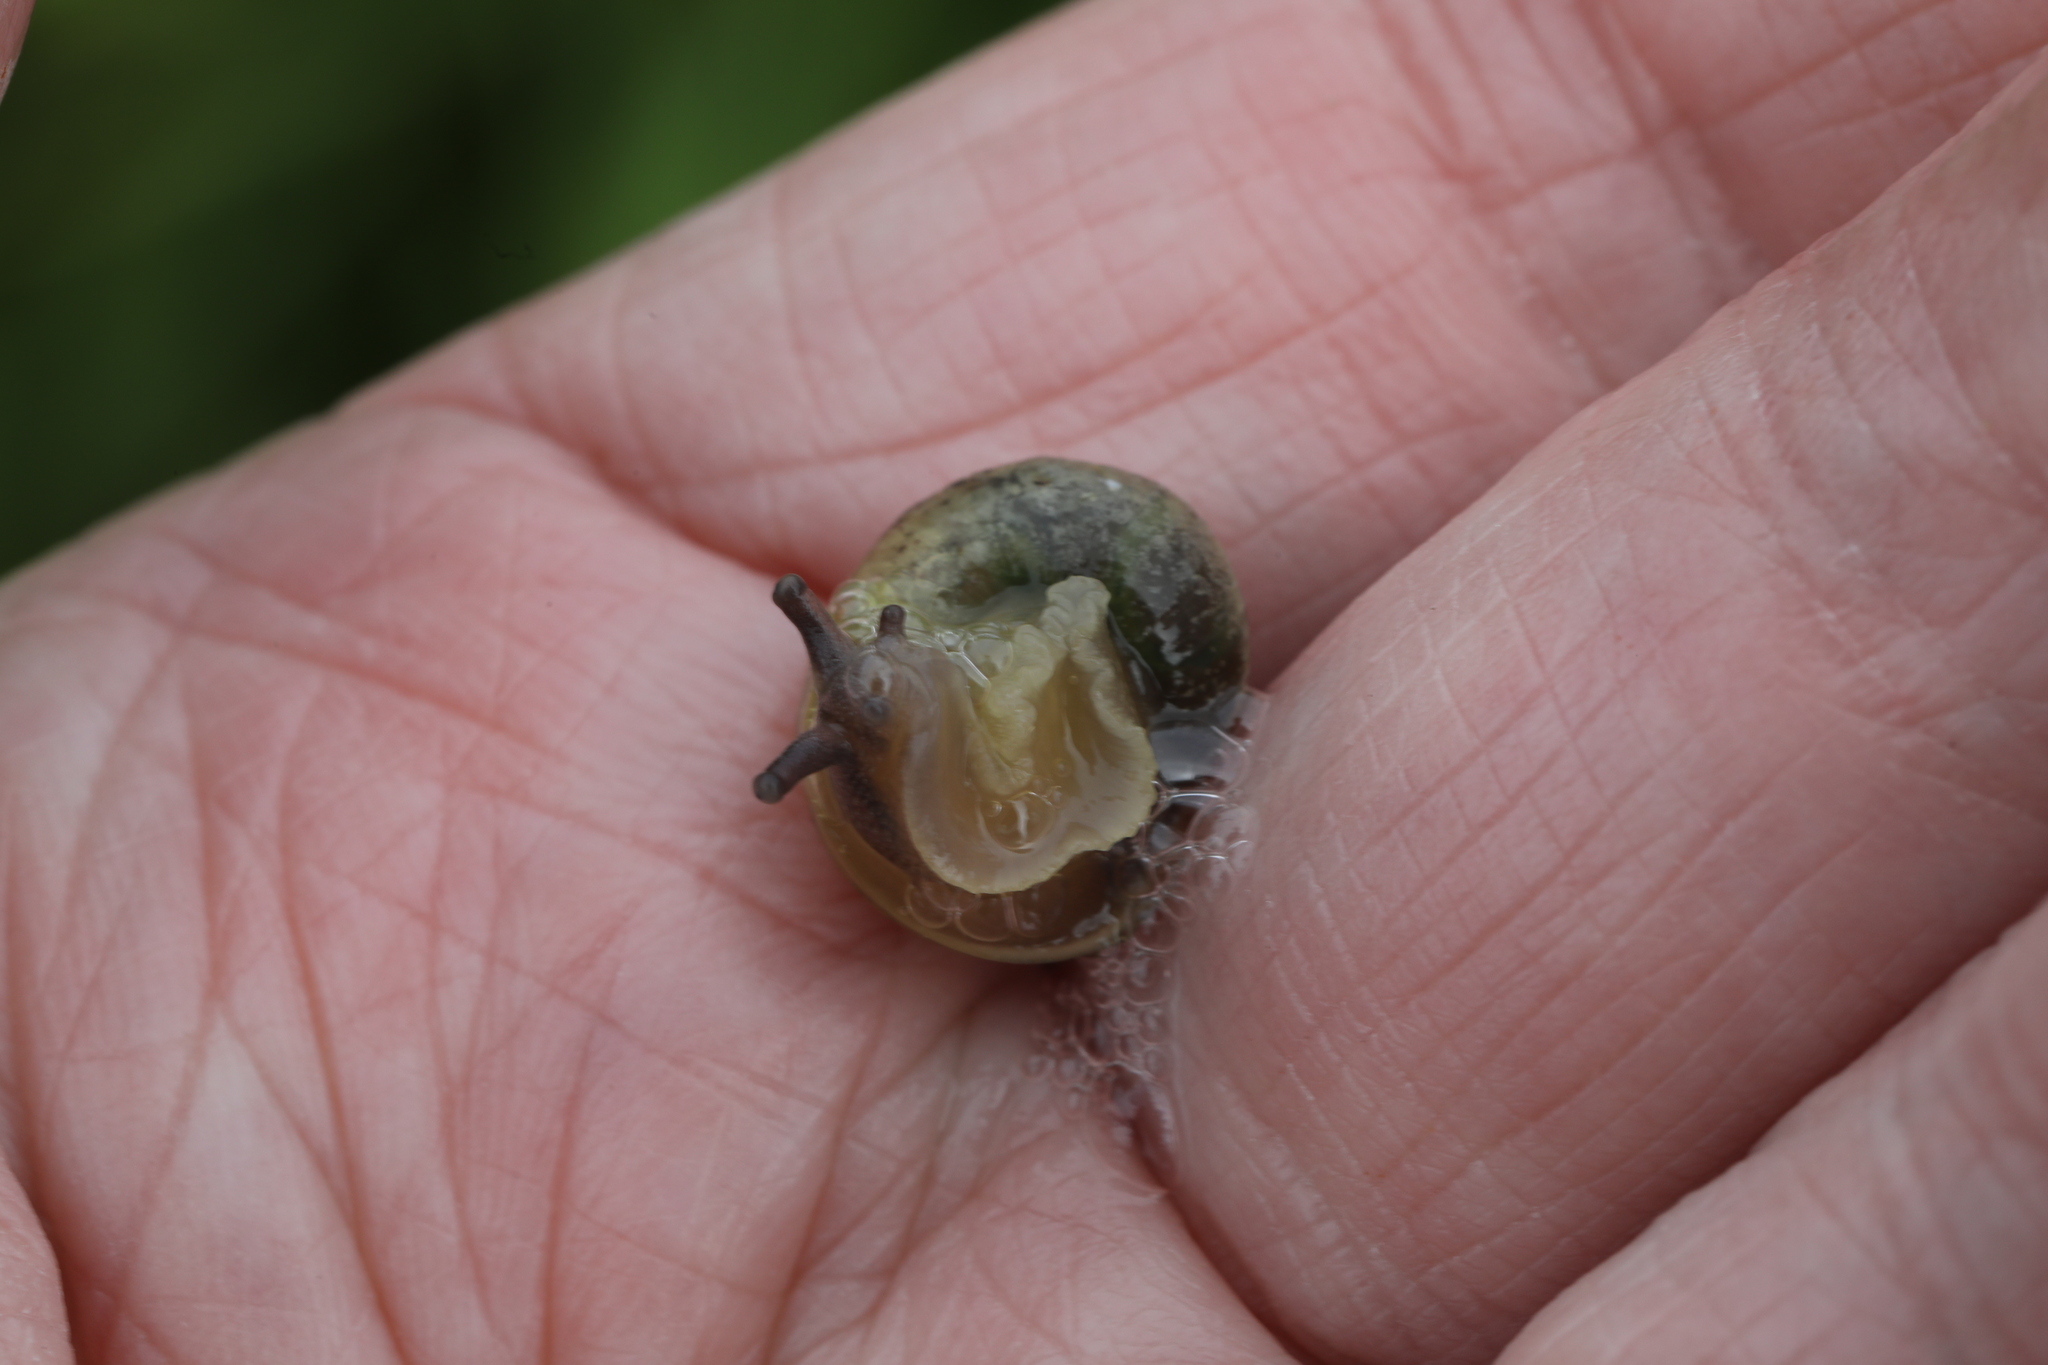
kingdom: Animalia
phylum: Mollusca
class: Gastropoda
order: Stylommatophora
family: Helicidae
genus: Cornu
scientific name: Cornu aspersum
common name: Brown garden snail
